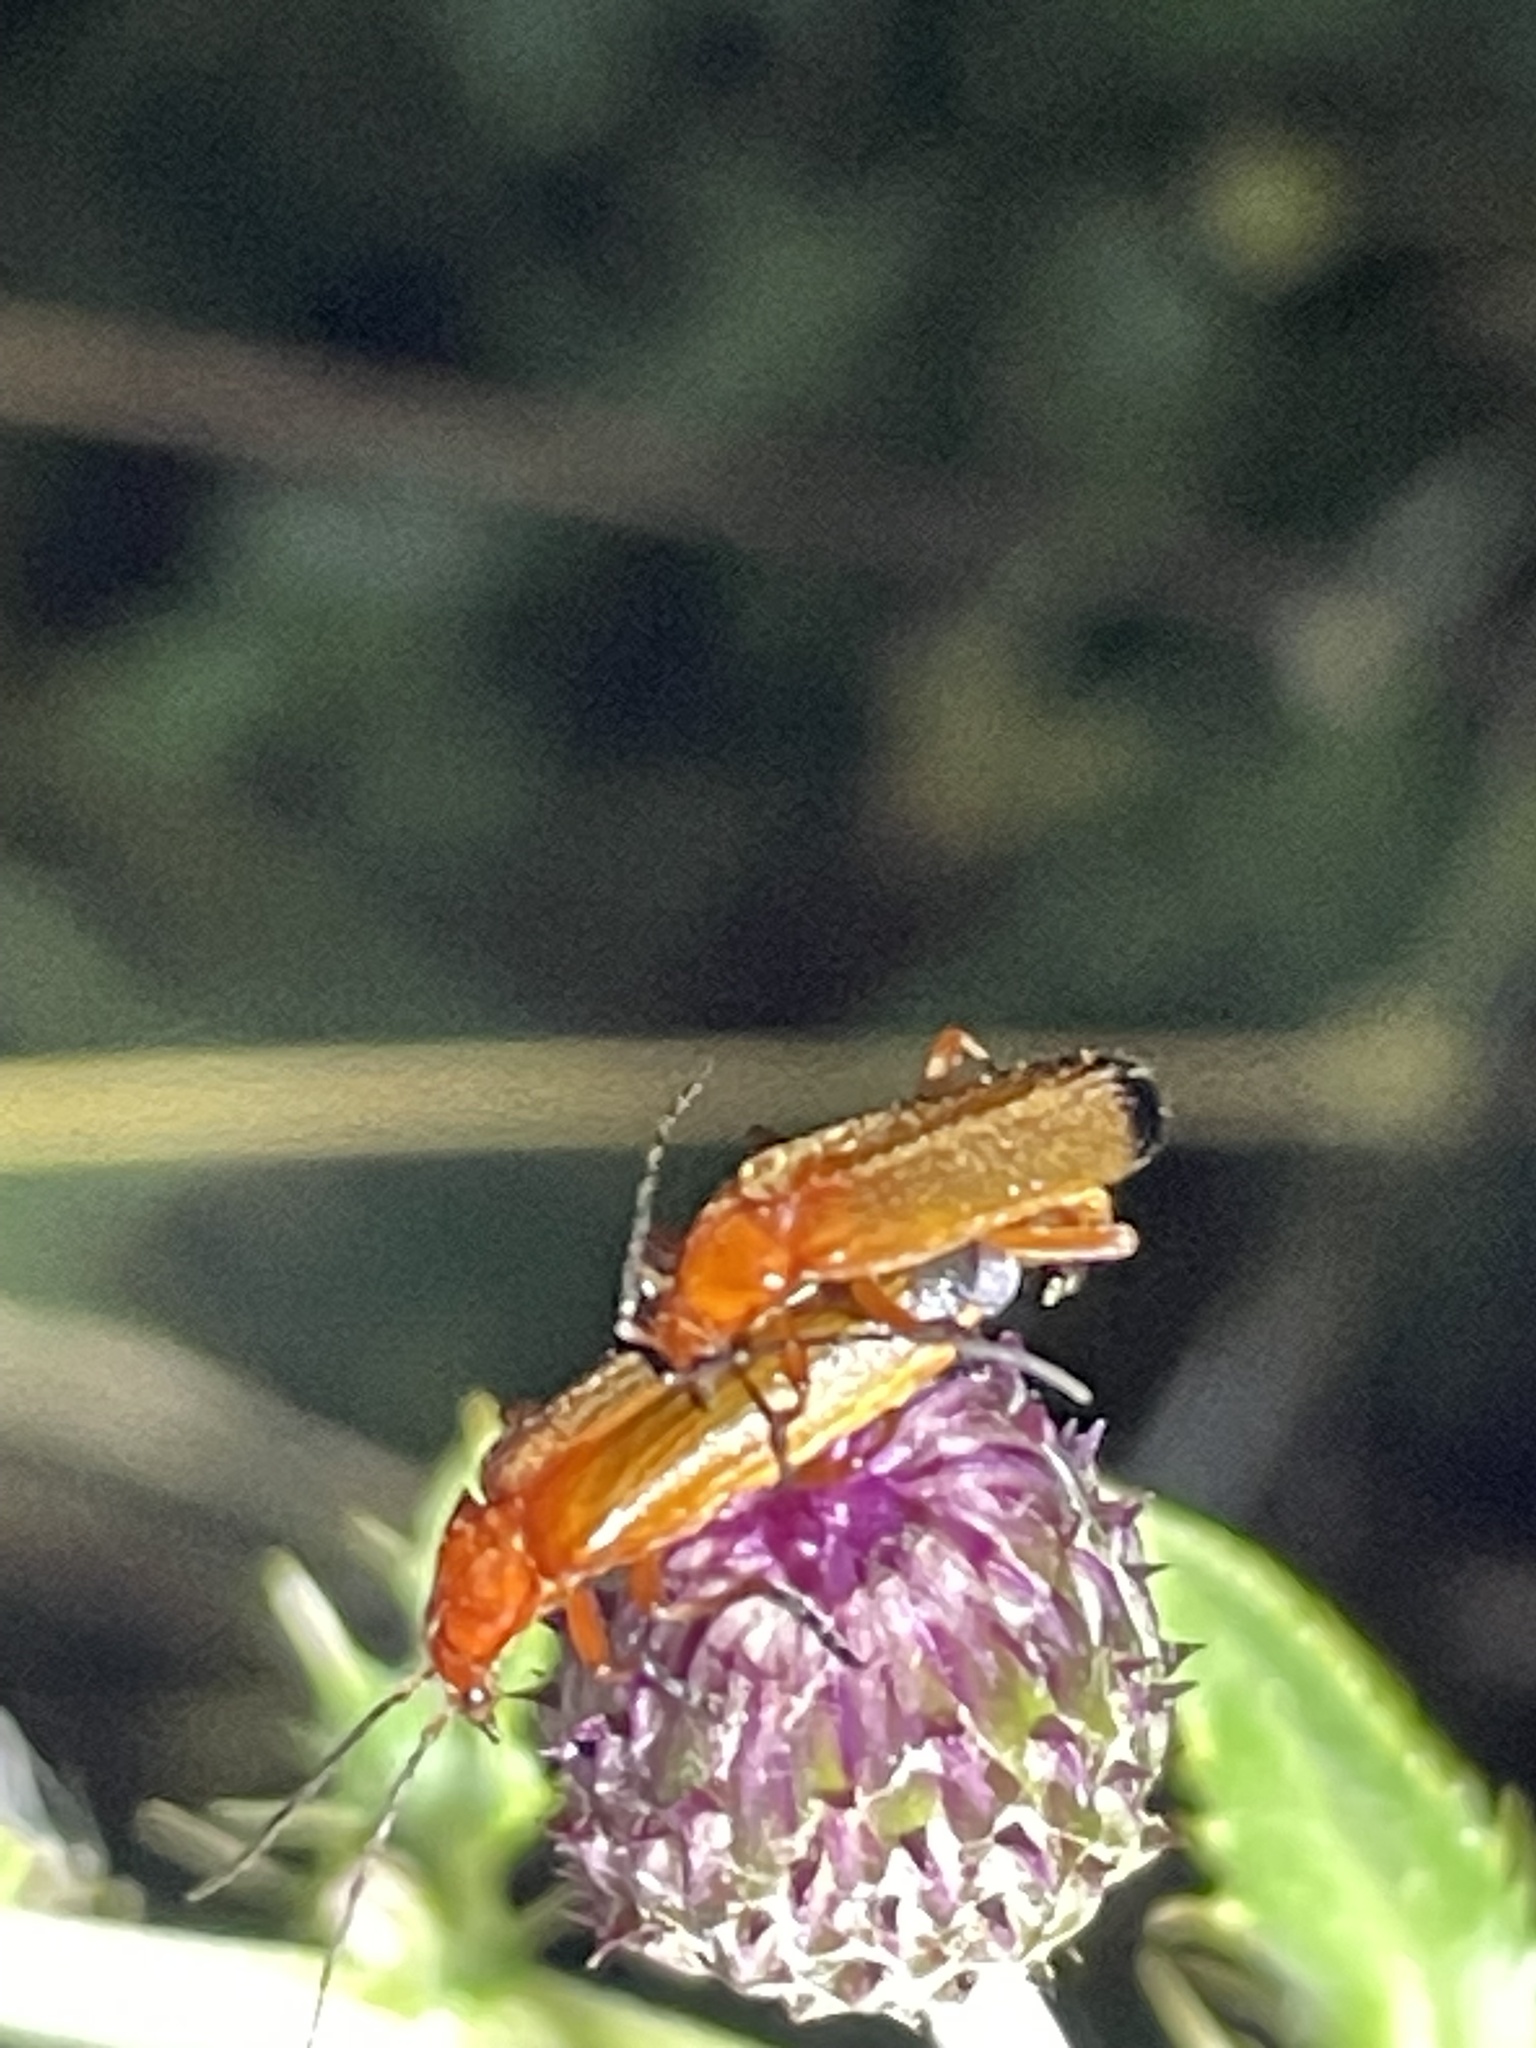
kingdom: Animalia
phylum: Arthropoda
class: Insecta
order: Coleoptera
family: Cantharidae
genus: Rhagonycha
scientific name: Rhagonycha fulva
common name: Common red soldier beetle
